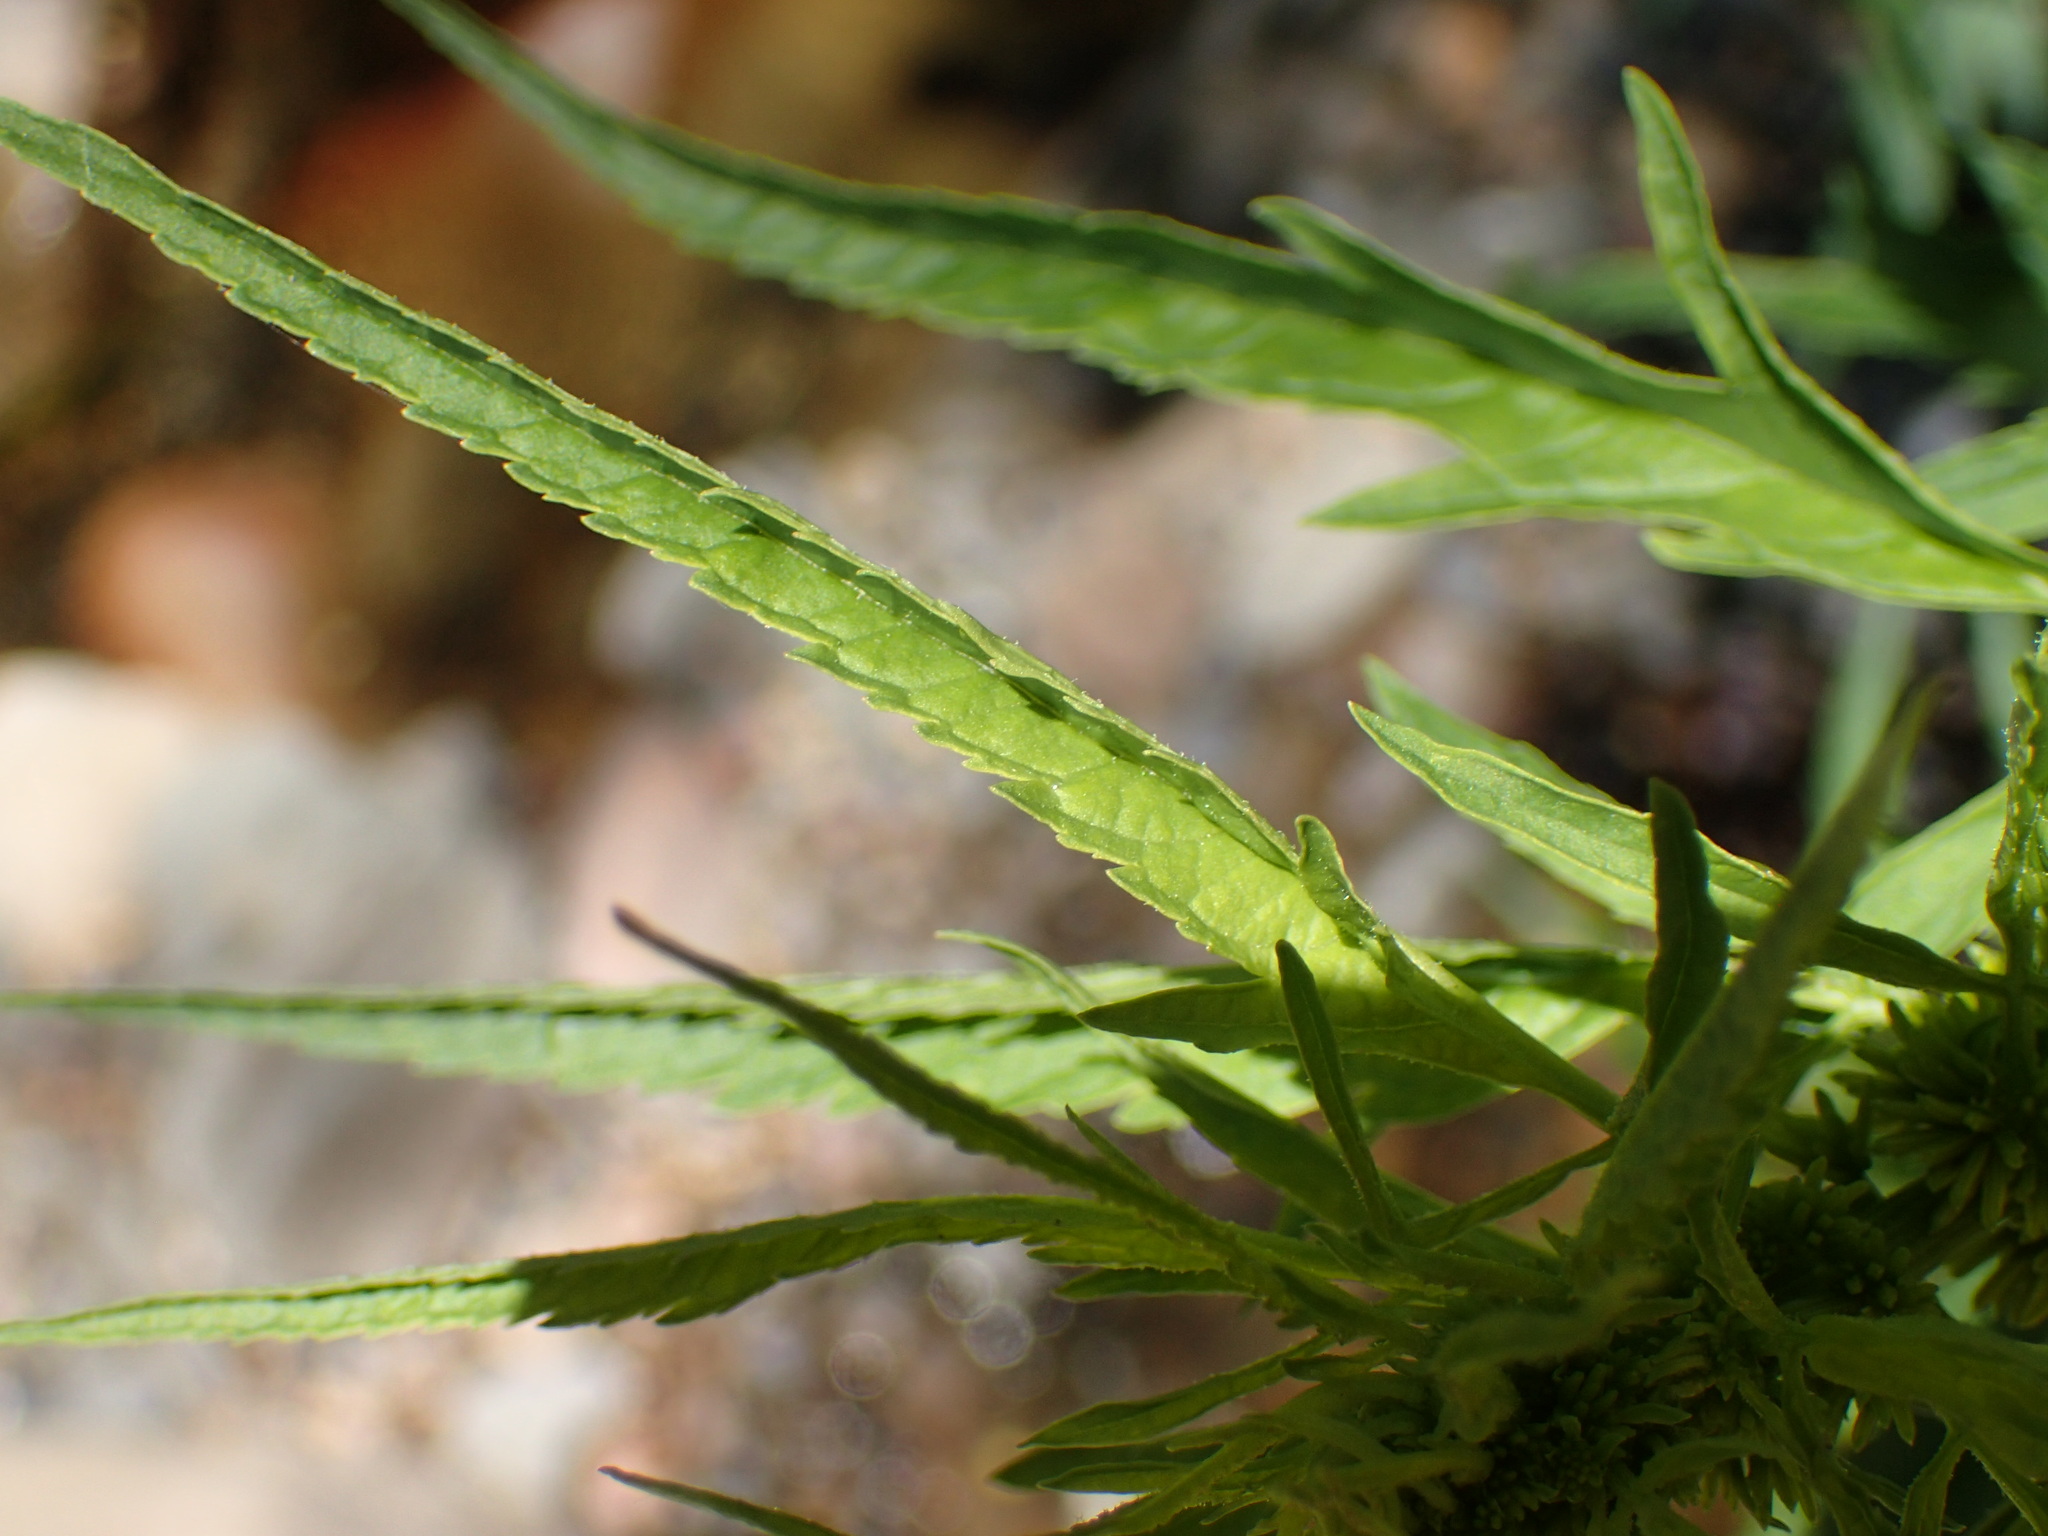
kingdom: Plantae
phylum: Tracheophyta
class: Magnoliopsida
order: Cucurbitales
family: Datiscaceae
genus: Datisca
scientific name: Datisca glomerata
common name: Durango-root
